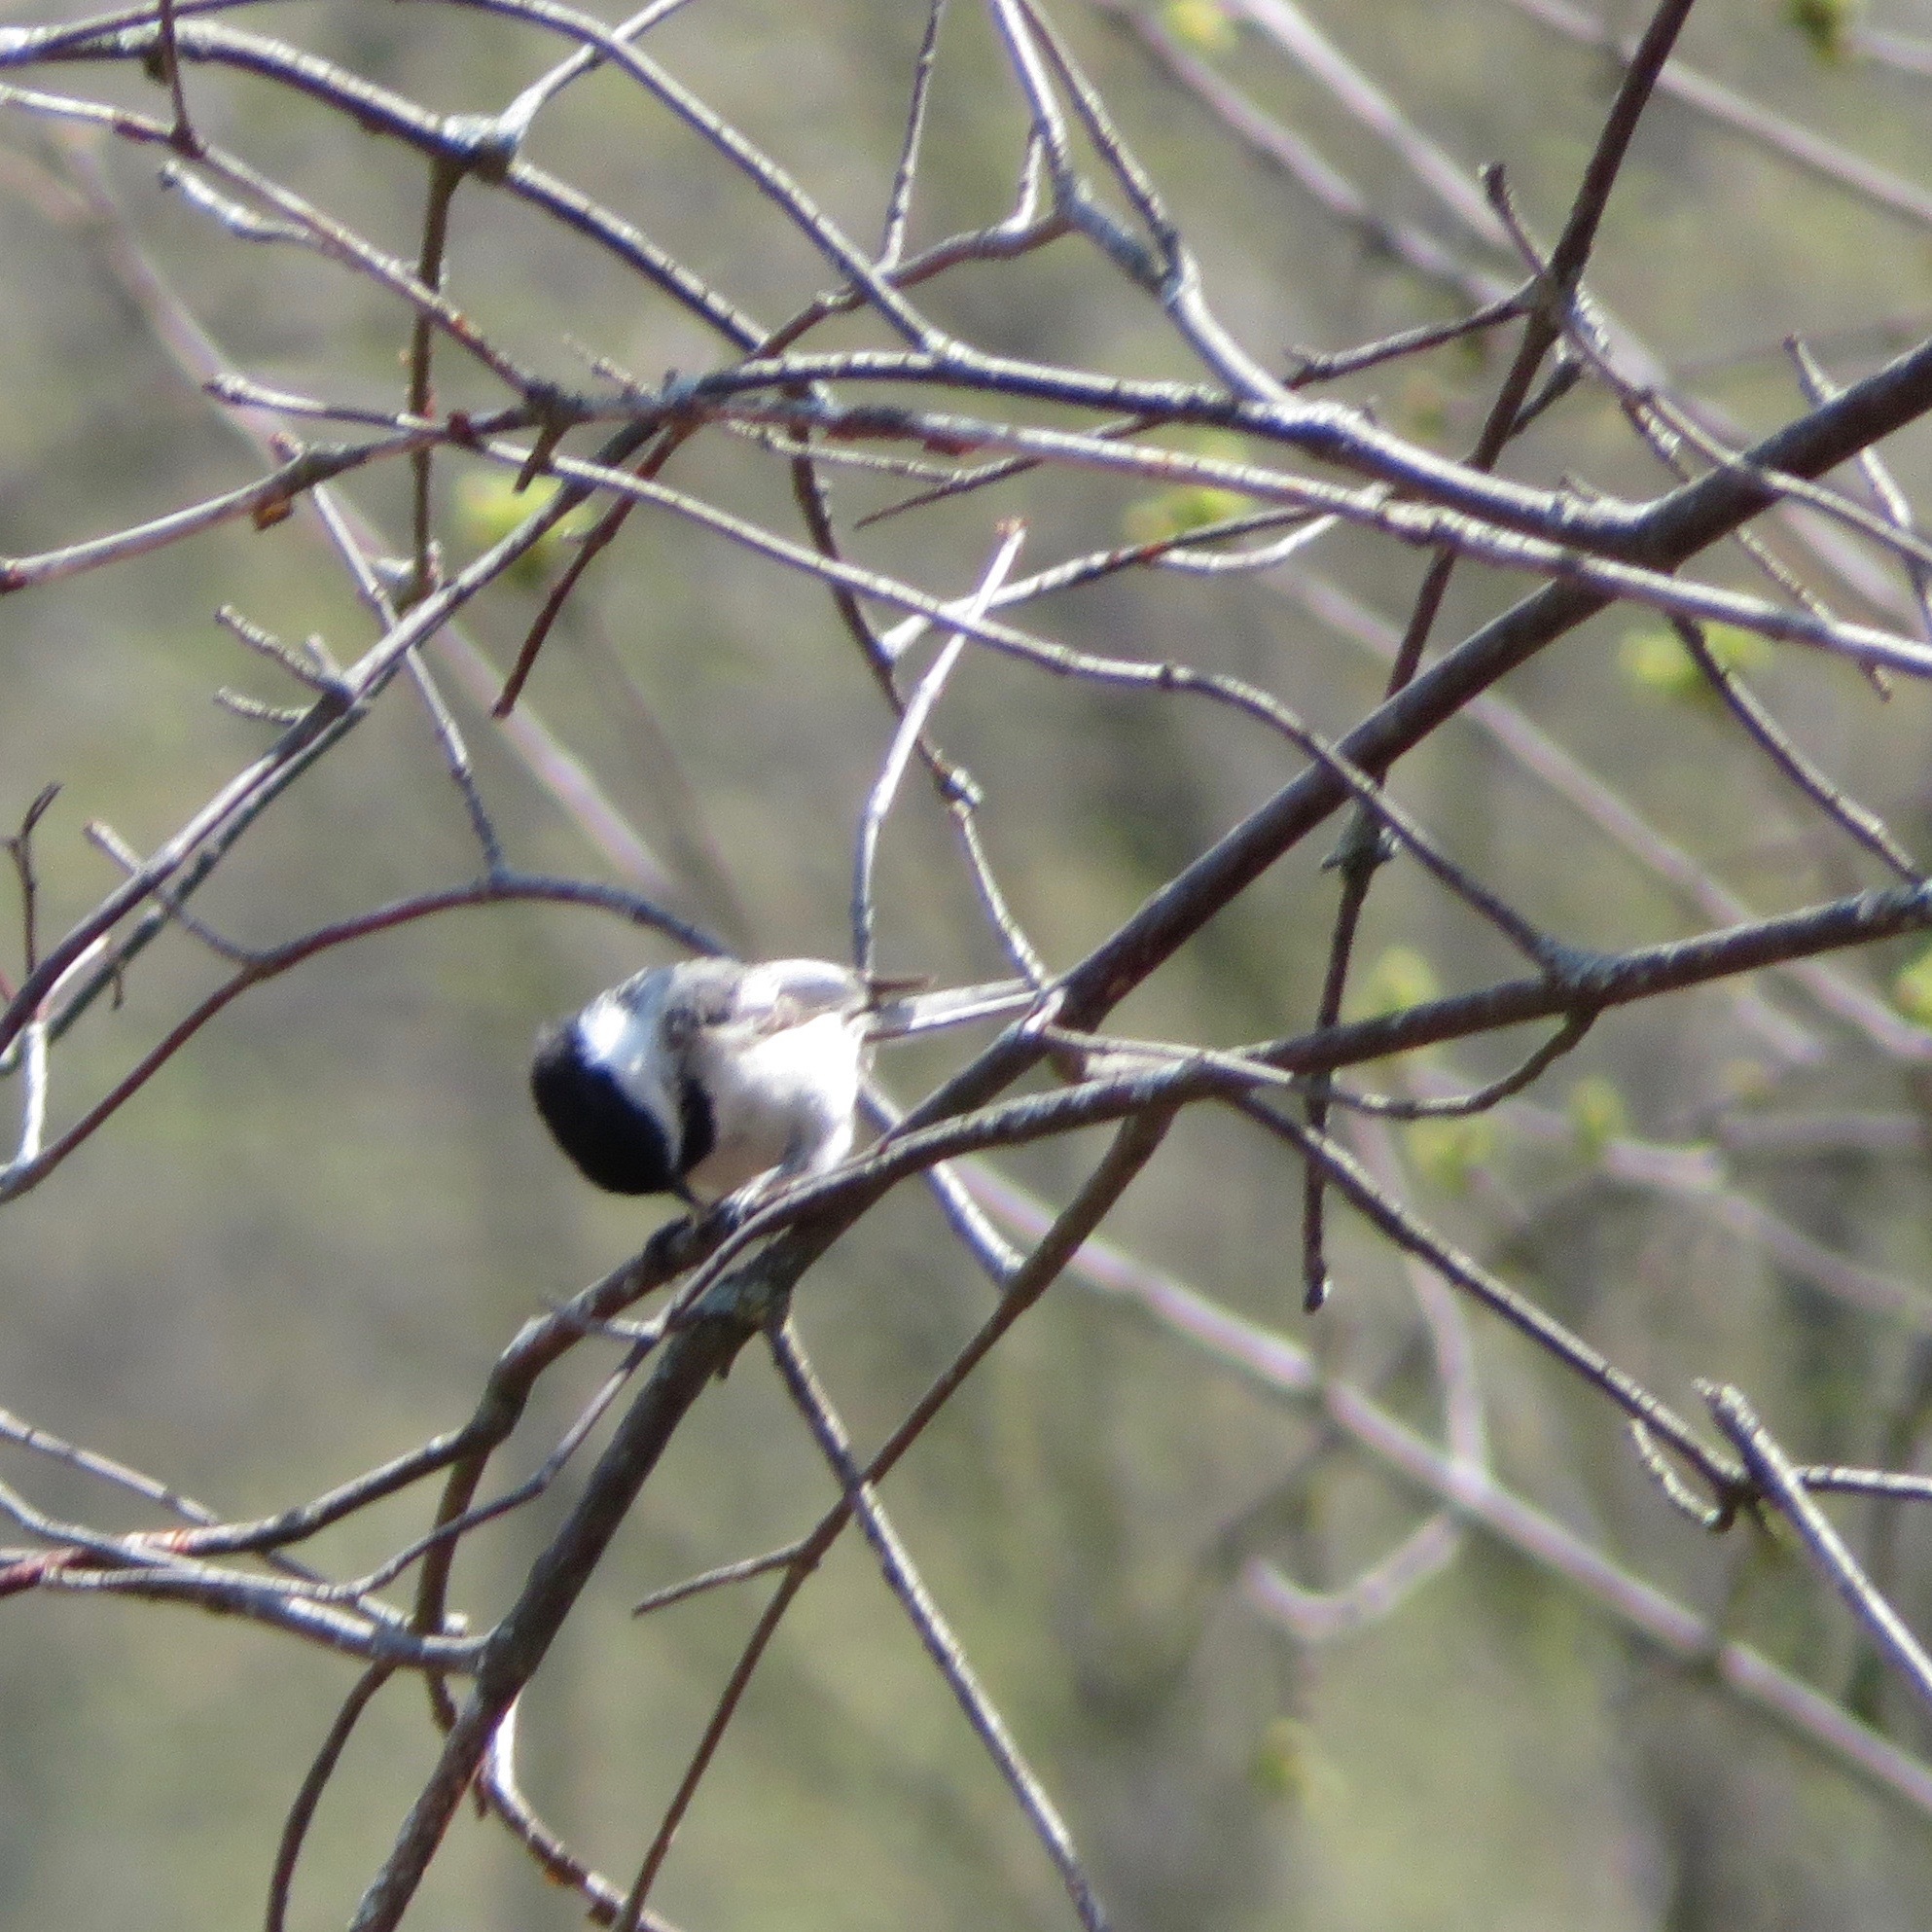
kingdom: Animalia
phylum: Chordata
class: Aves
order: Passeriformes
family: Paridae
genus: Poecile
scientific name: Poecile atricapillus
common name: Black-capped chickadee
